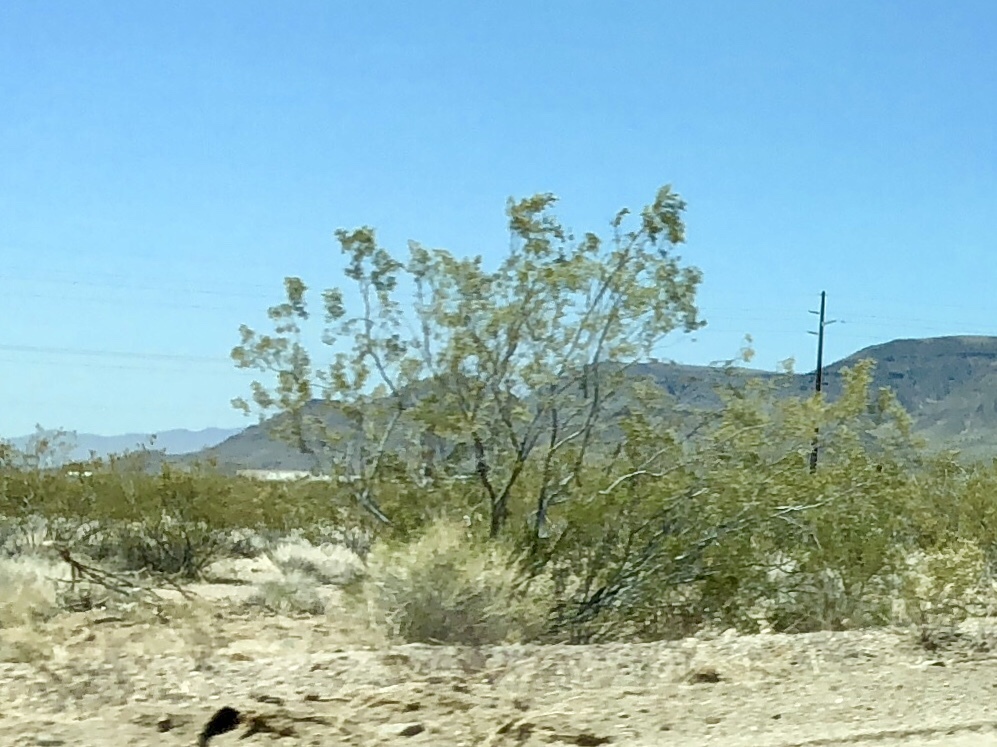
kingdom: Plantae
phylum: Tracheophyta
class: Magnoliopsida
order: Zygophyllales
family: Zygophyllaceae
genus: Larrea
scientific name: Larrea tridentata
